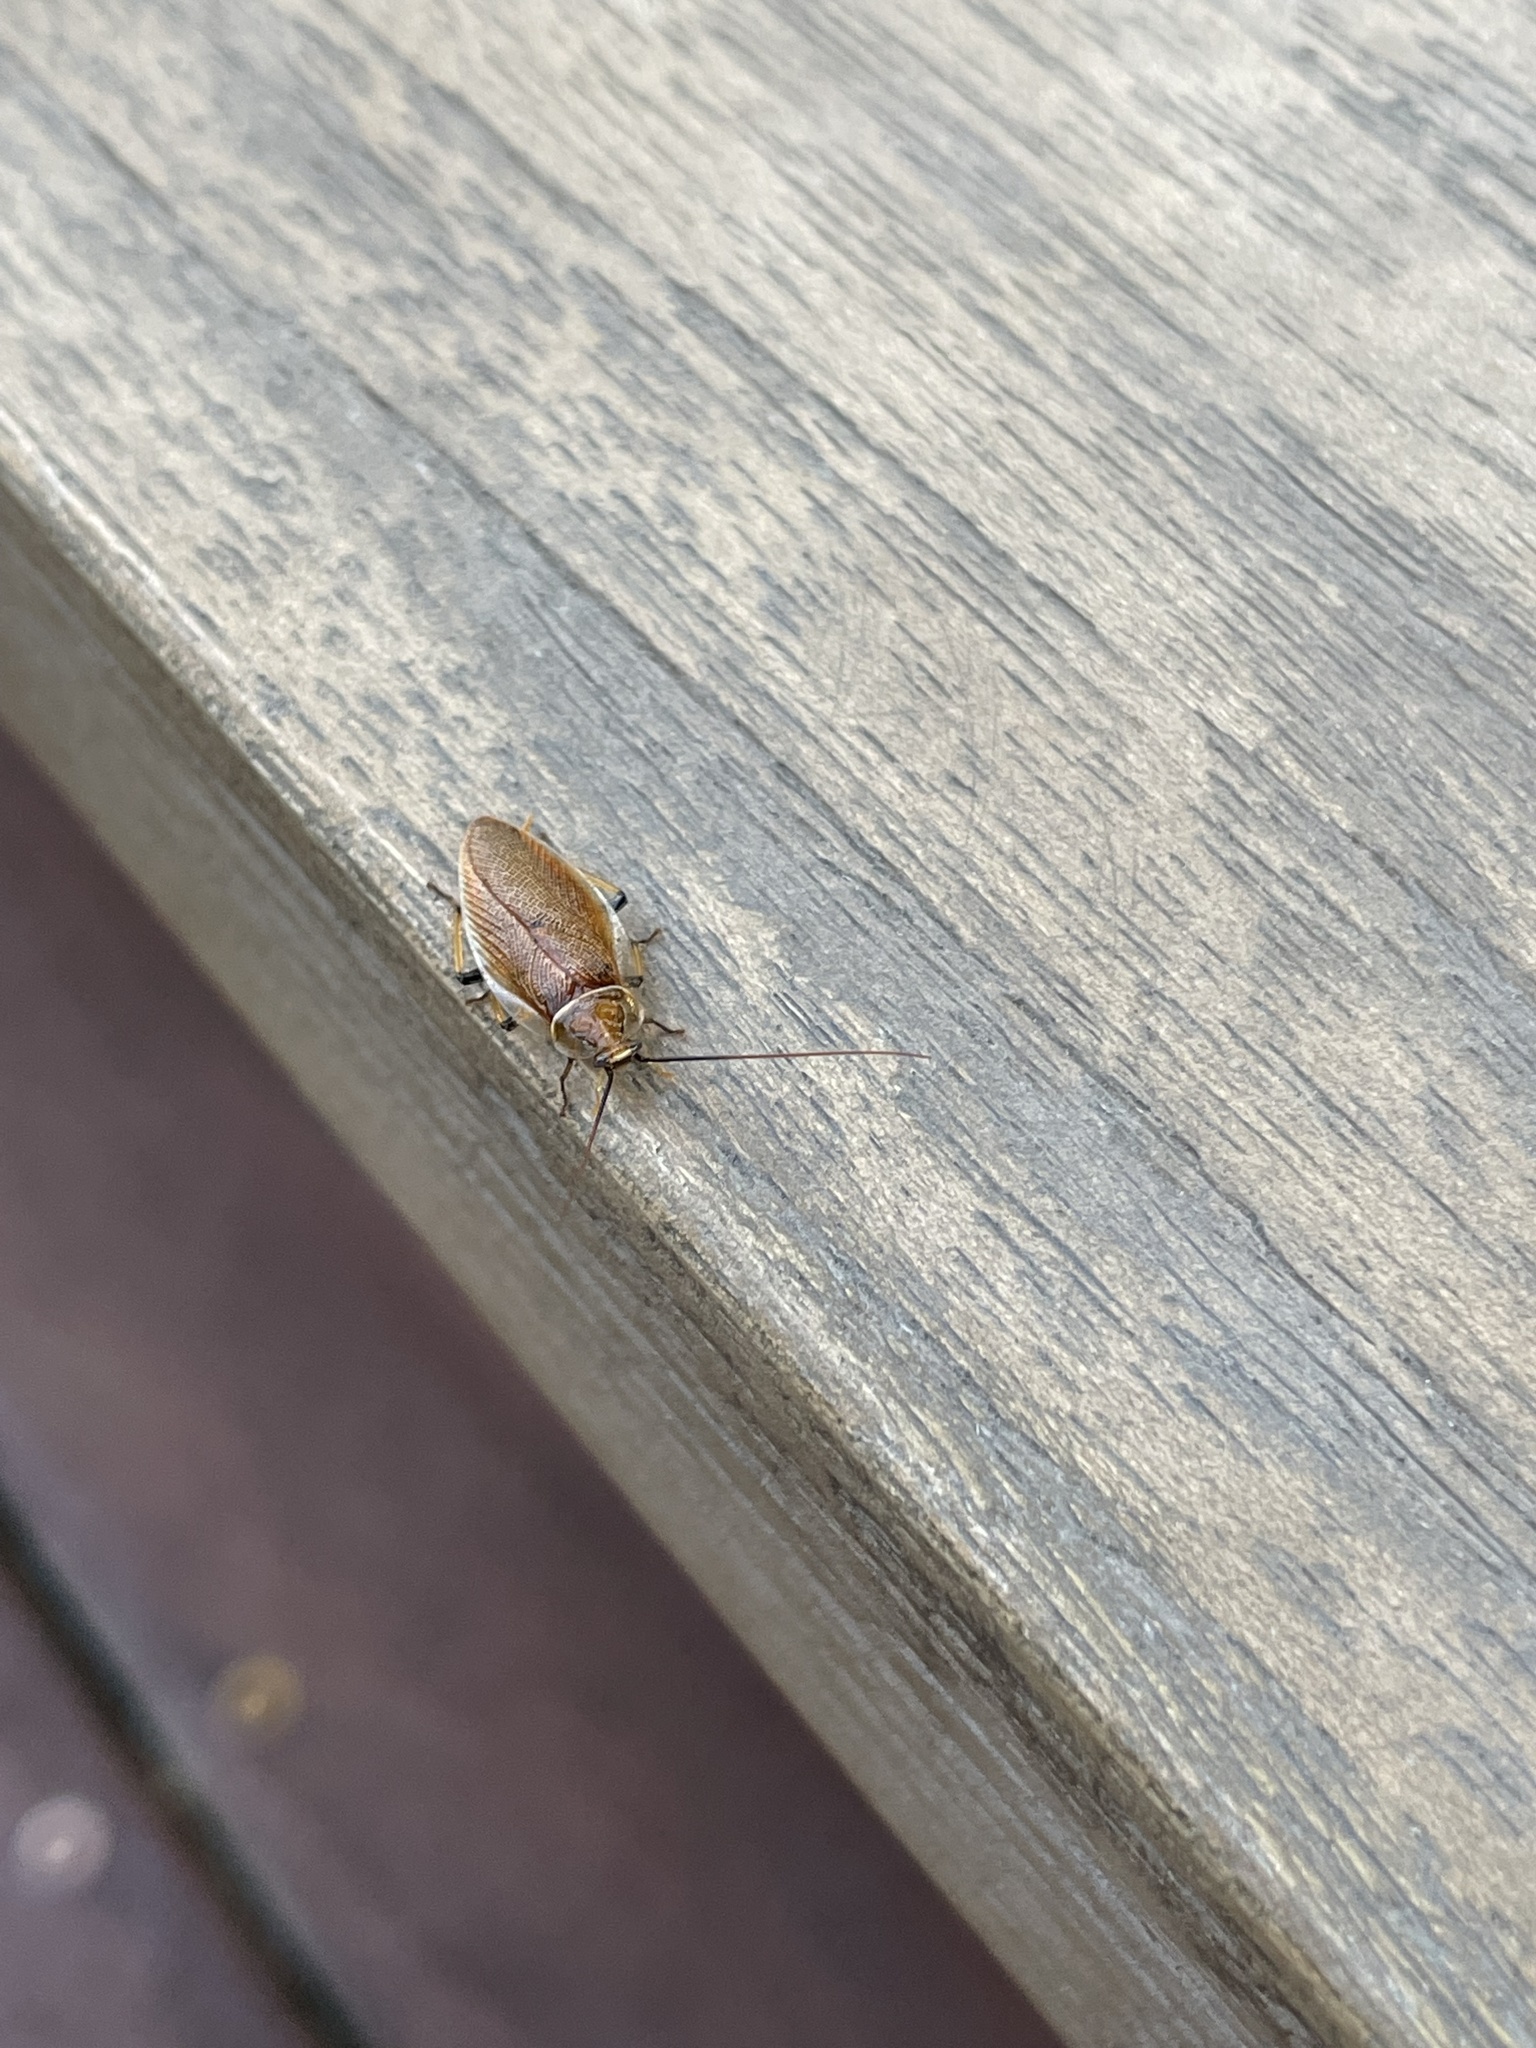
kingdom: Animalia
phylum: Arthropoda
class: Insecta
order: Blattodea
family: Ectobiidae
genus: Balta
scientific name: Balta bicolor
